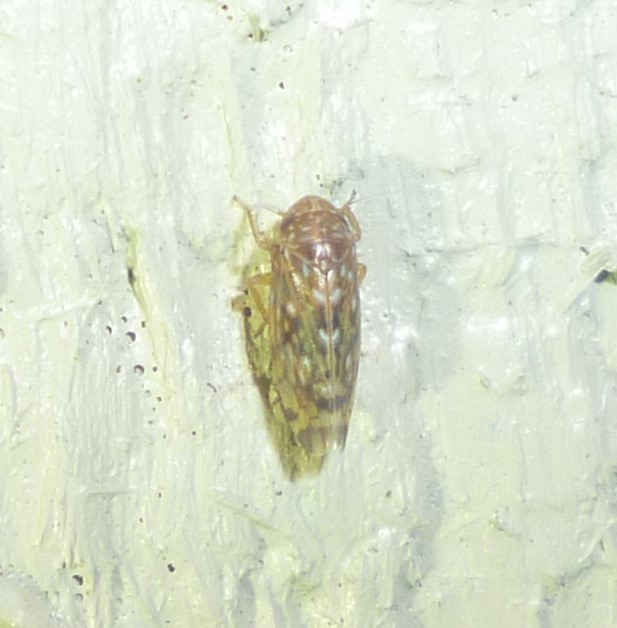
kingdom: Animalia
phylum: Arthropoda
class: Insecta
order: Hemiptera
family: Cicadellidae
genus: Xestocephalus
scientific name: Xestocephalus
